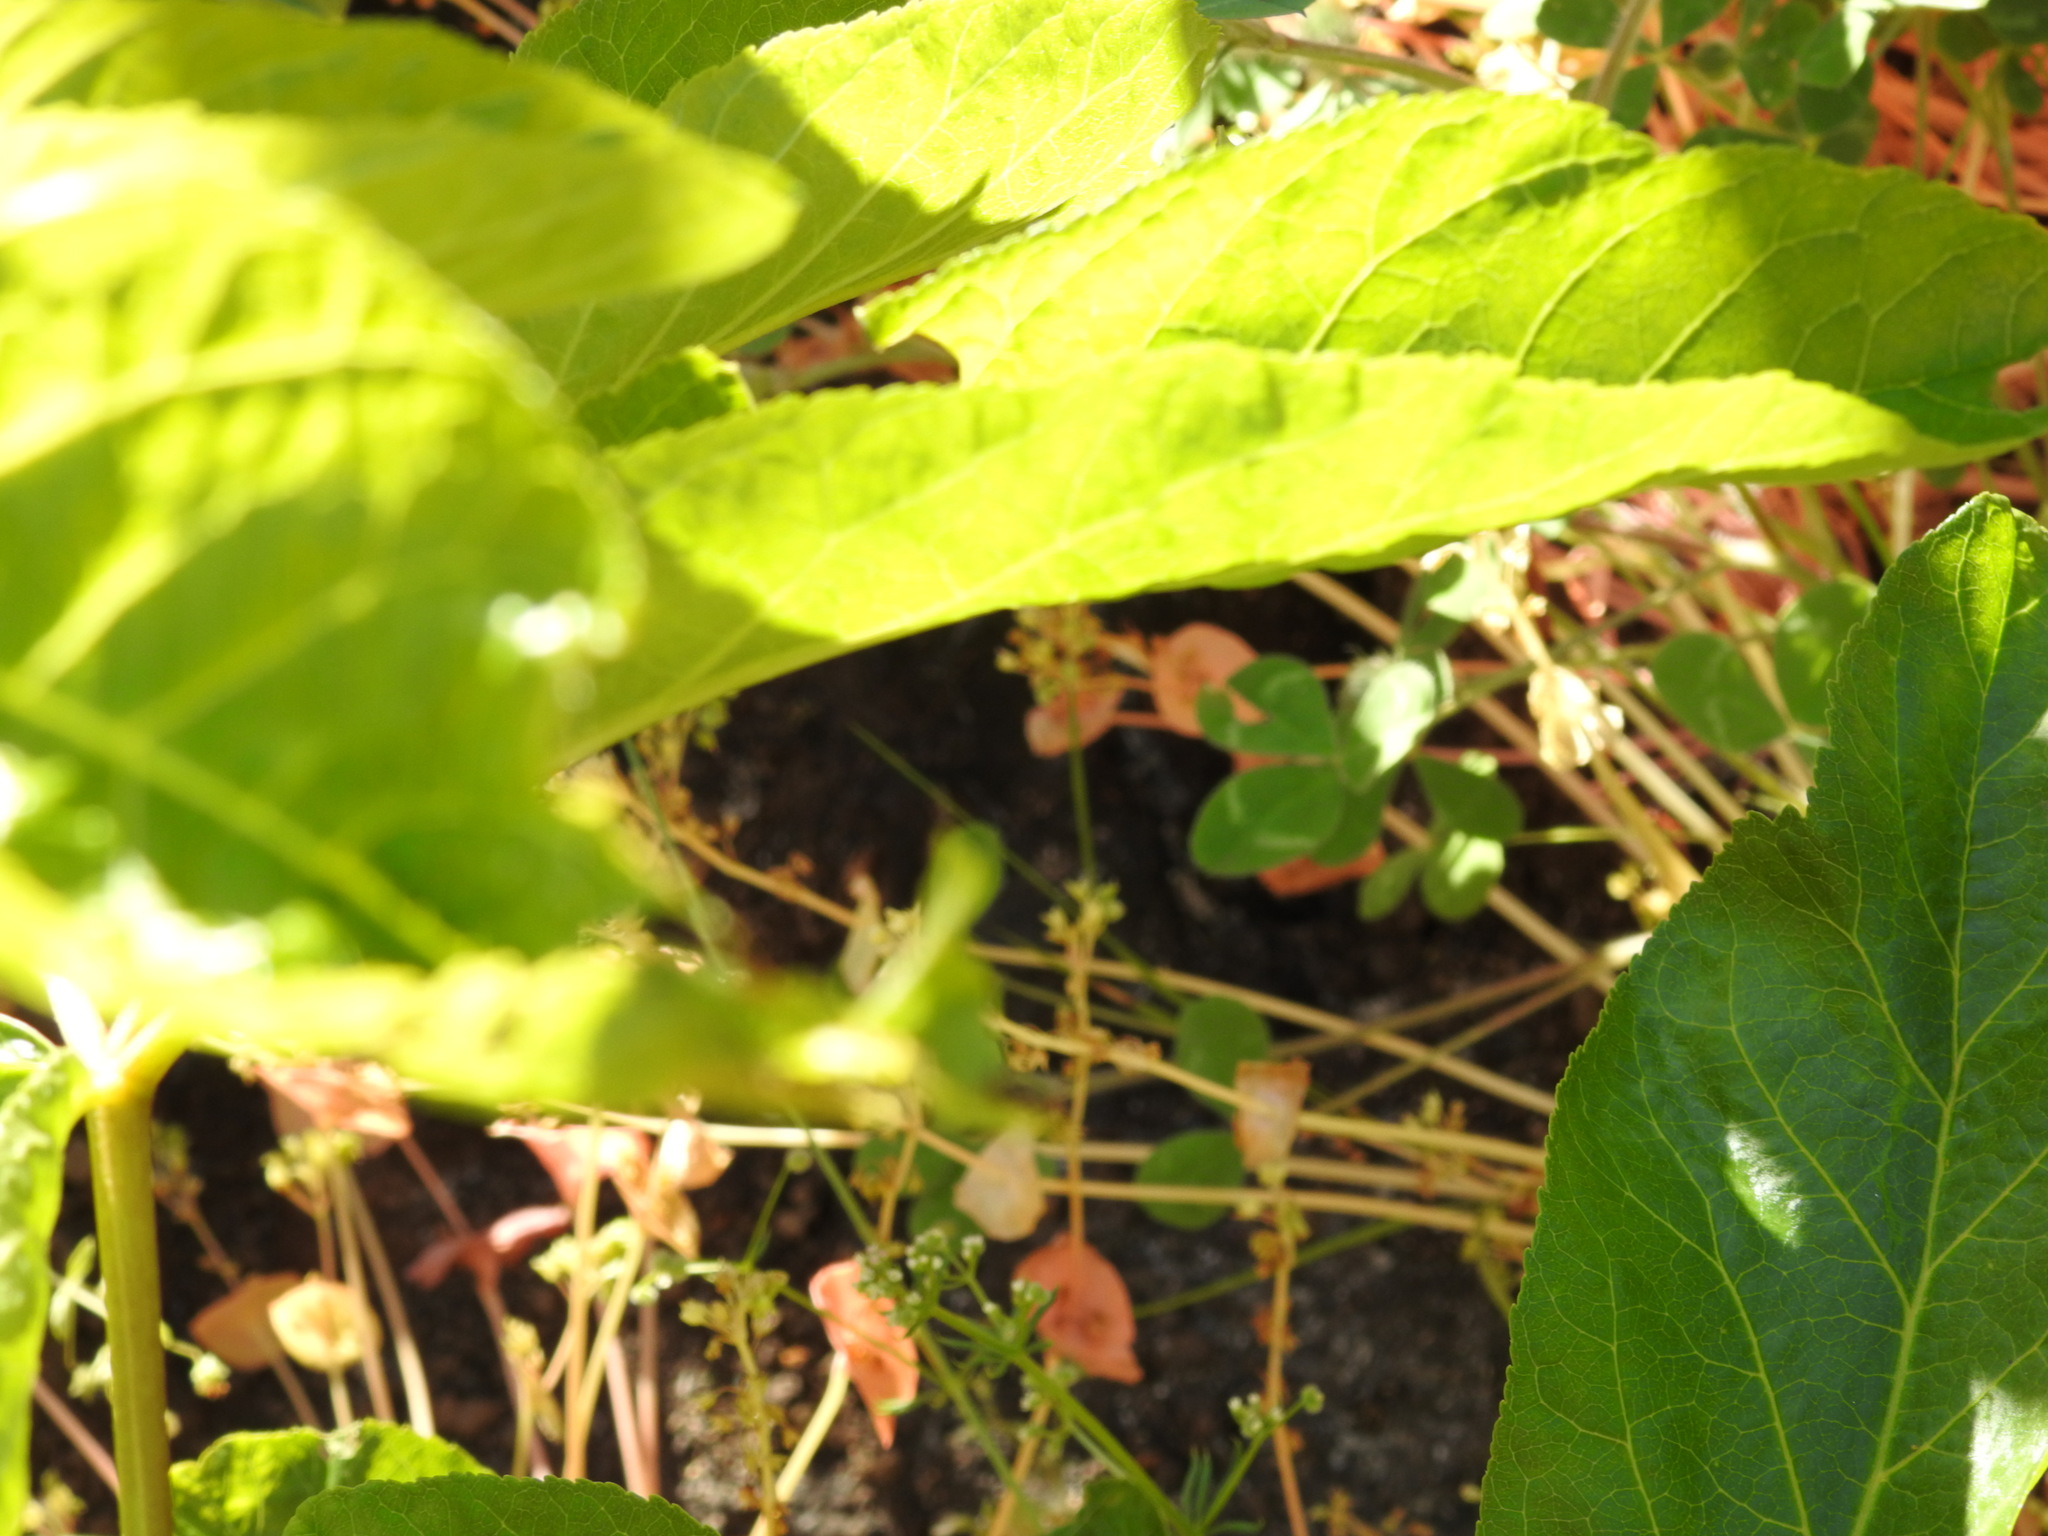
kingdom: Plantae
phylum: Tracheophyta
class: Magnoliopsida
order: Sapindales
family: Sapindaceae
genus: Aesculus
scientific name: Aesculus californica
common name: California buckeye
